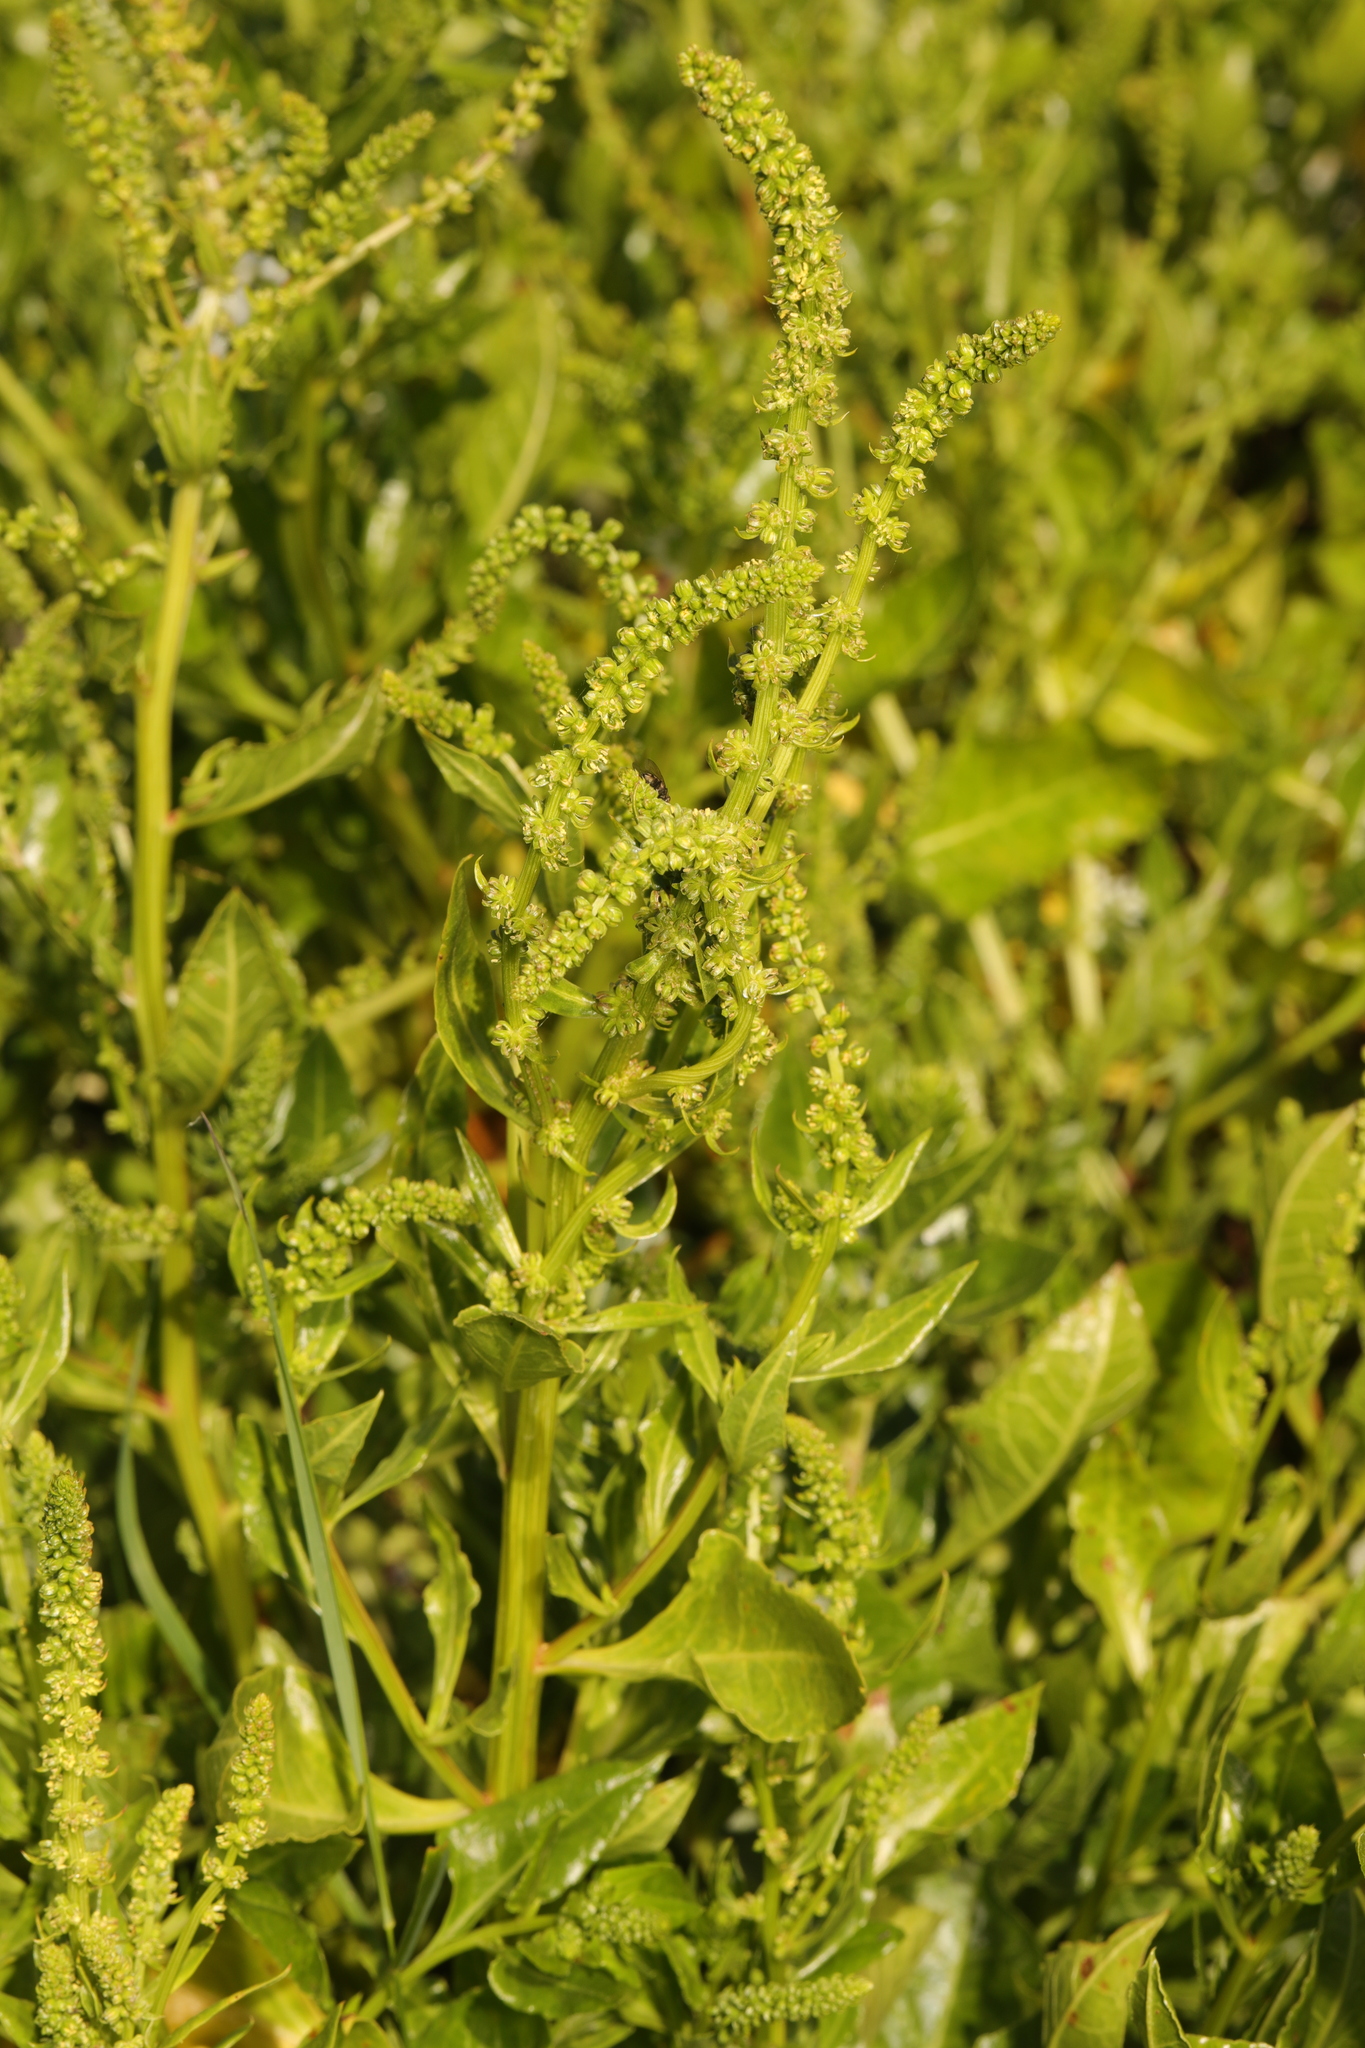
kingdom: Plantae
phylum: Tracheophyta
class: Magnoliopsida
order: Caryophyllales
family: Amaranthaceae
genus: Beta
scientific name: Beta vulgaris
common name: Beet
